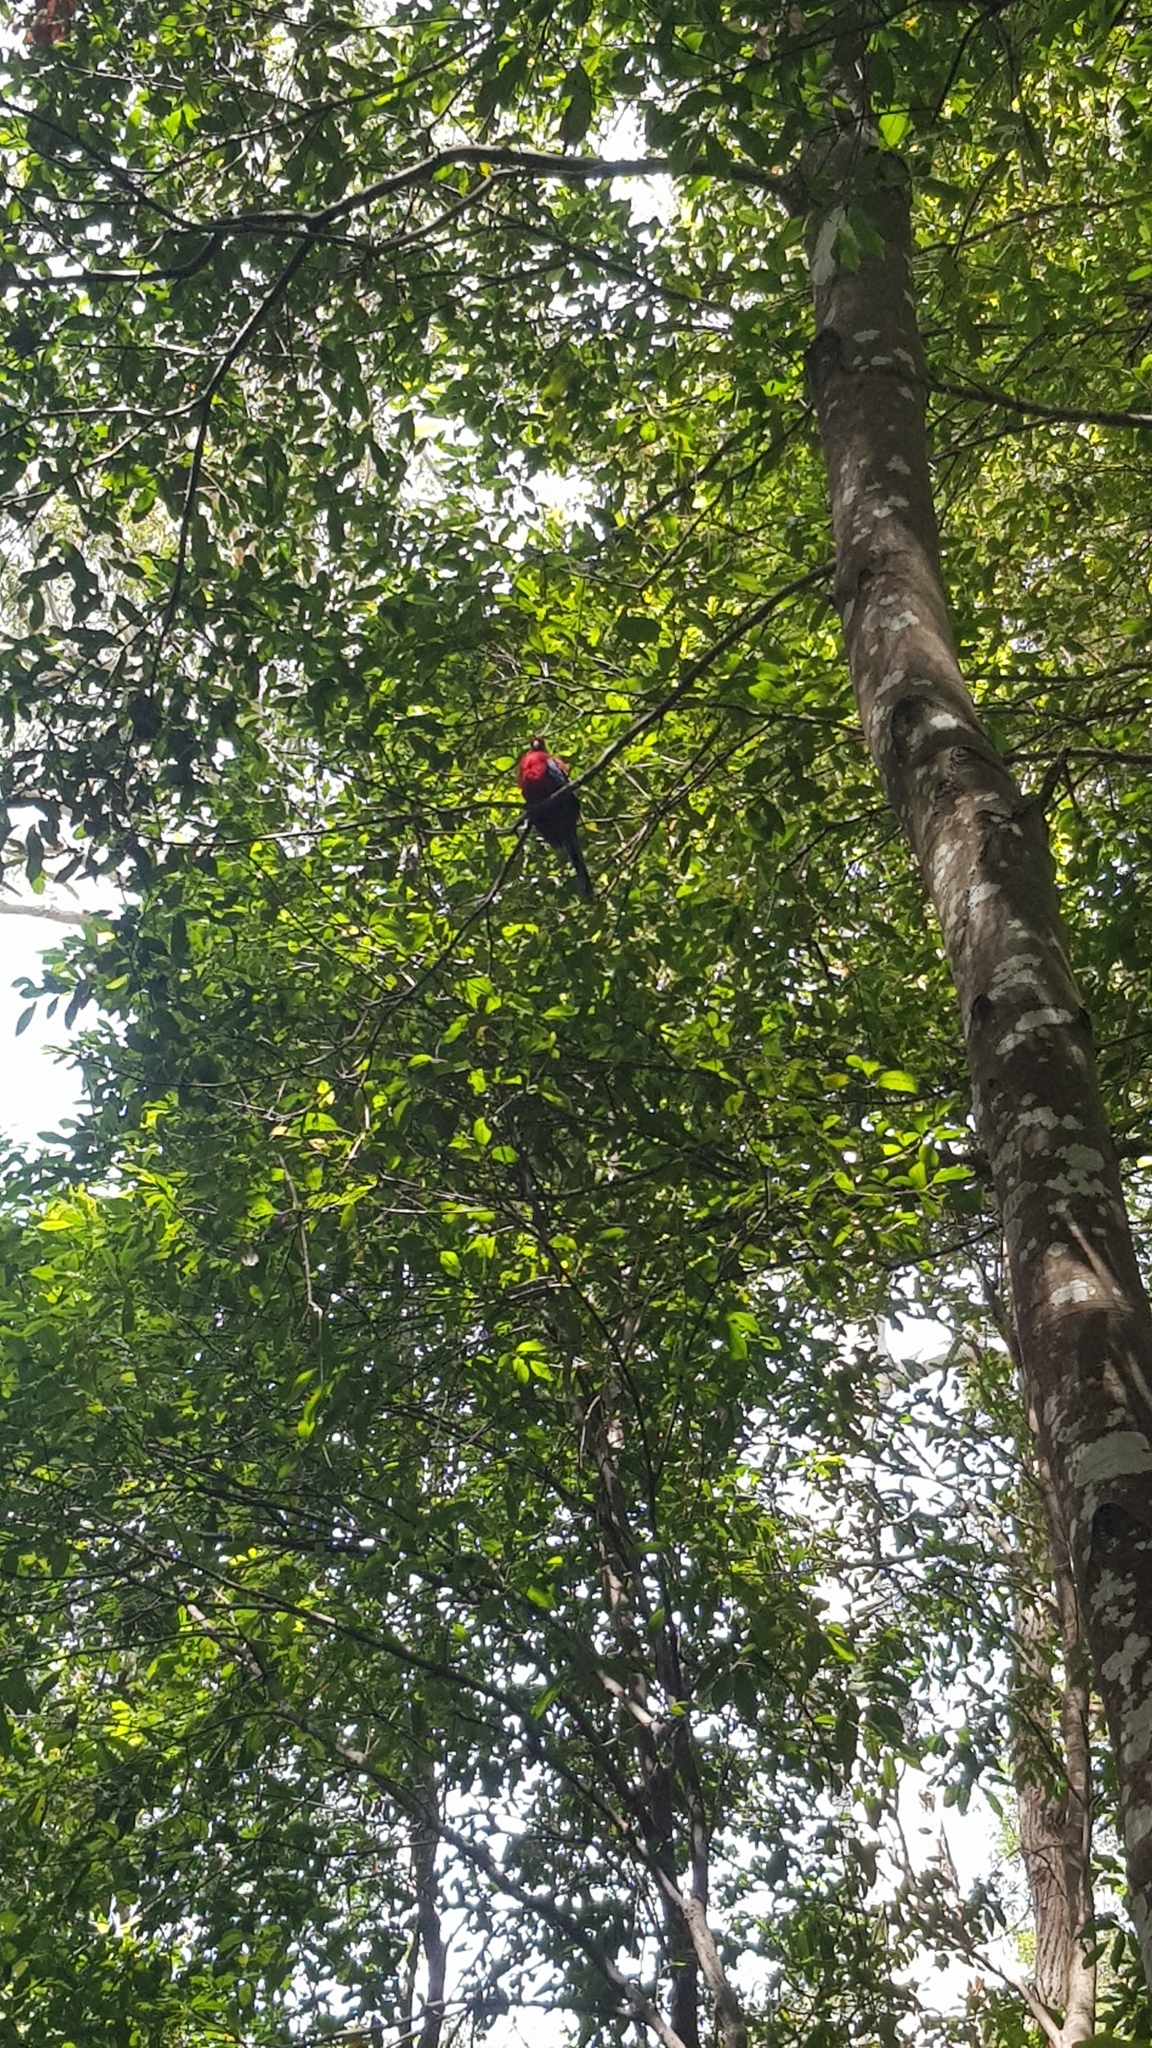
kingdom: Animalia
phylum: Chordata
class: Aves
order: Psittaciformes
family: Psittacidae
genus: Platycercus
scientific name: Platycercus elegans
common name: Crimson rosella
